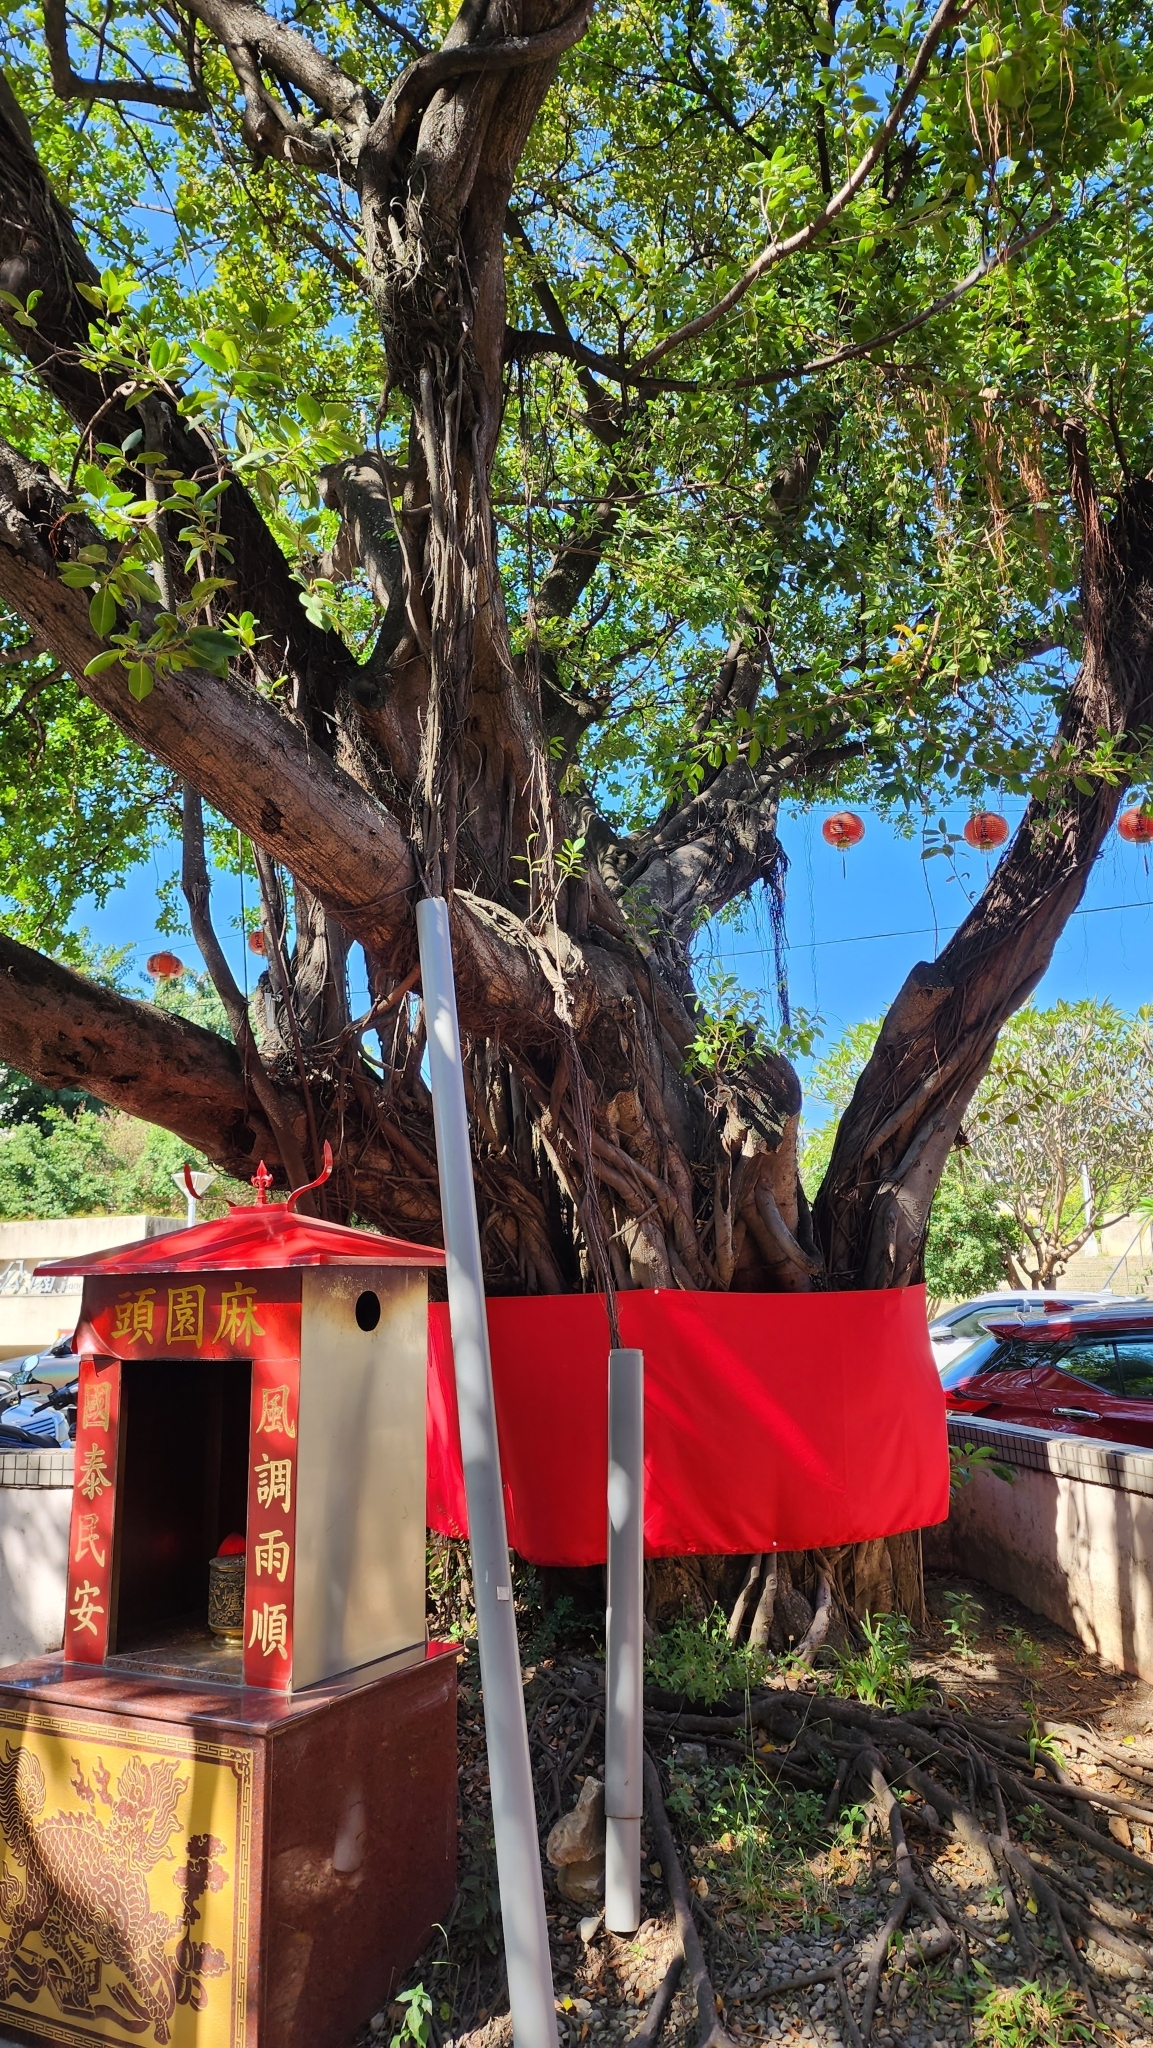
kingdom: Plantae
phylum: Tracheophyta
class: Magnoliopsida
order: Rosales
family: Moraceae
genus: Ficus
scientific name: Ficus microcarpa
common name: Chinese banyan
